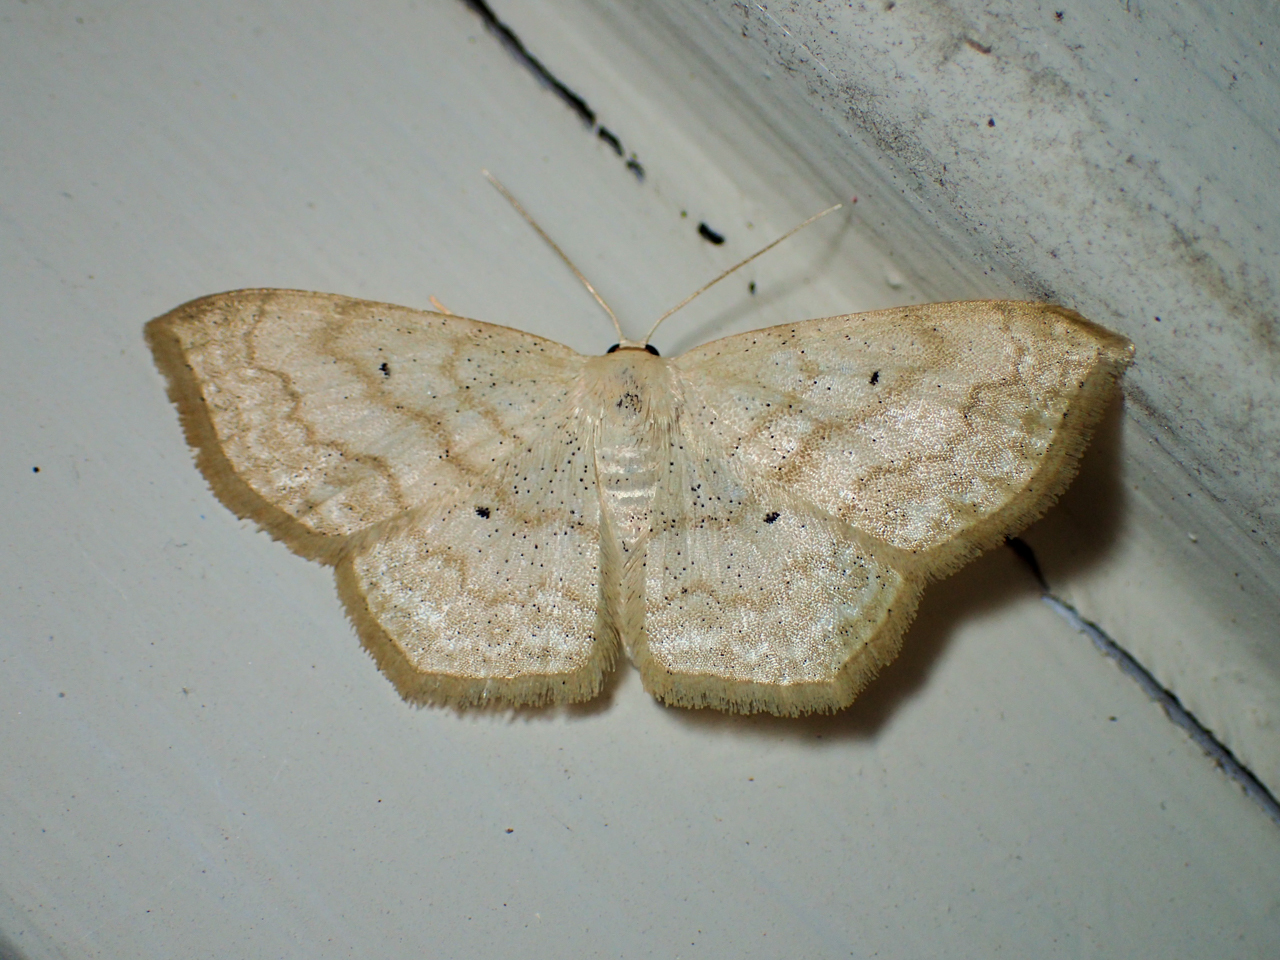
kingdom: Animalia
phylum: Arthropoda
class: Insecta
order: Lepidoptera
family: Geometridae
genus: Scopula
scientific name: Scopula limboundata
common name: Large lace border
